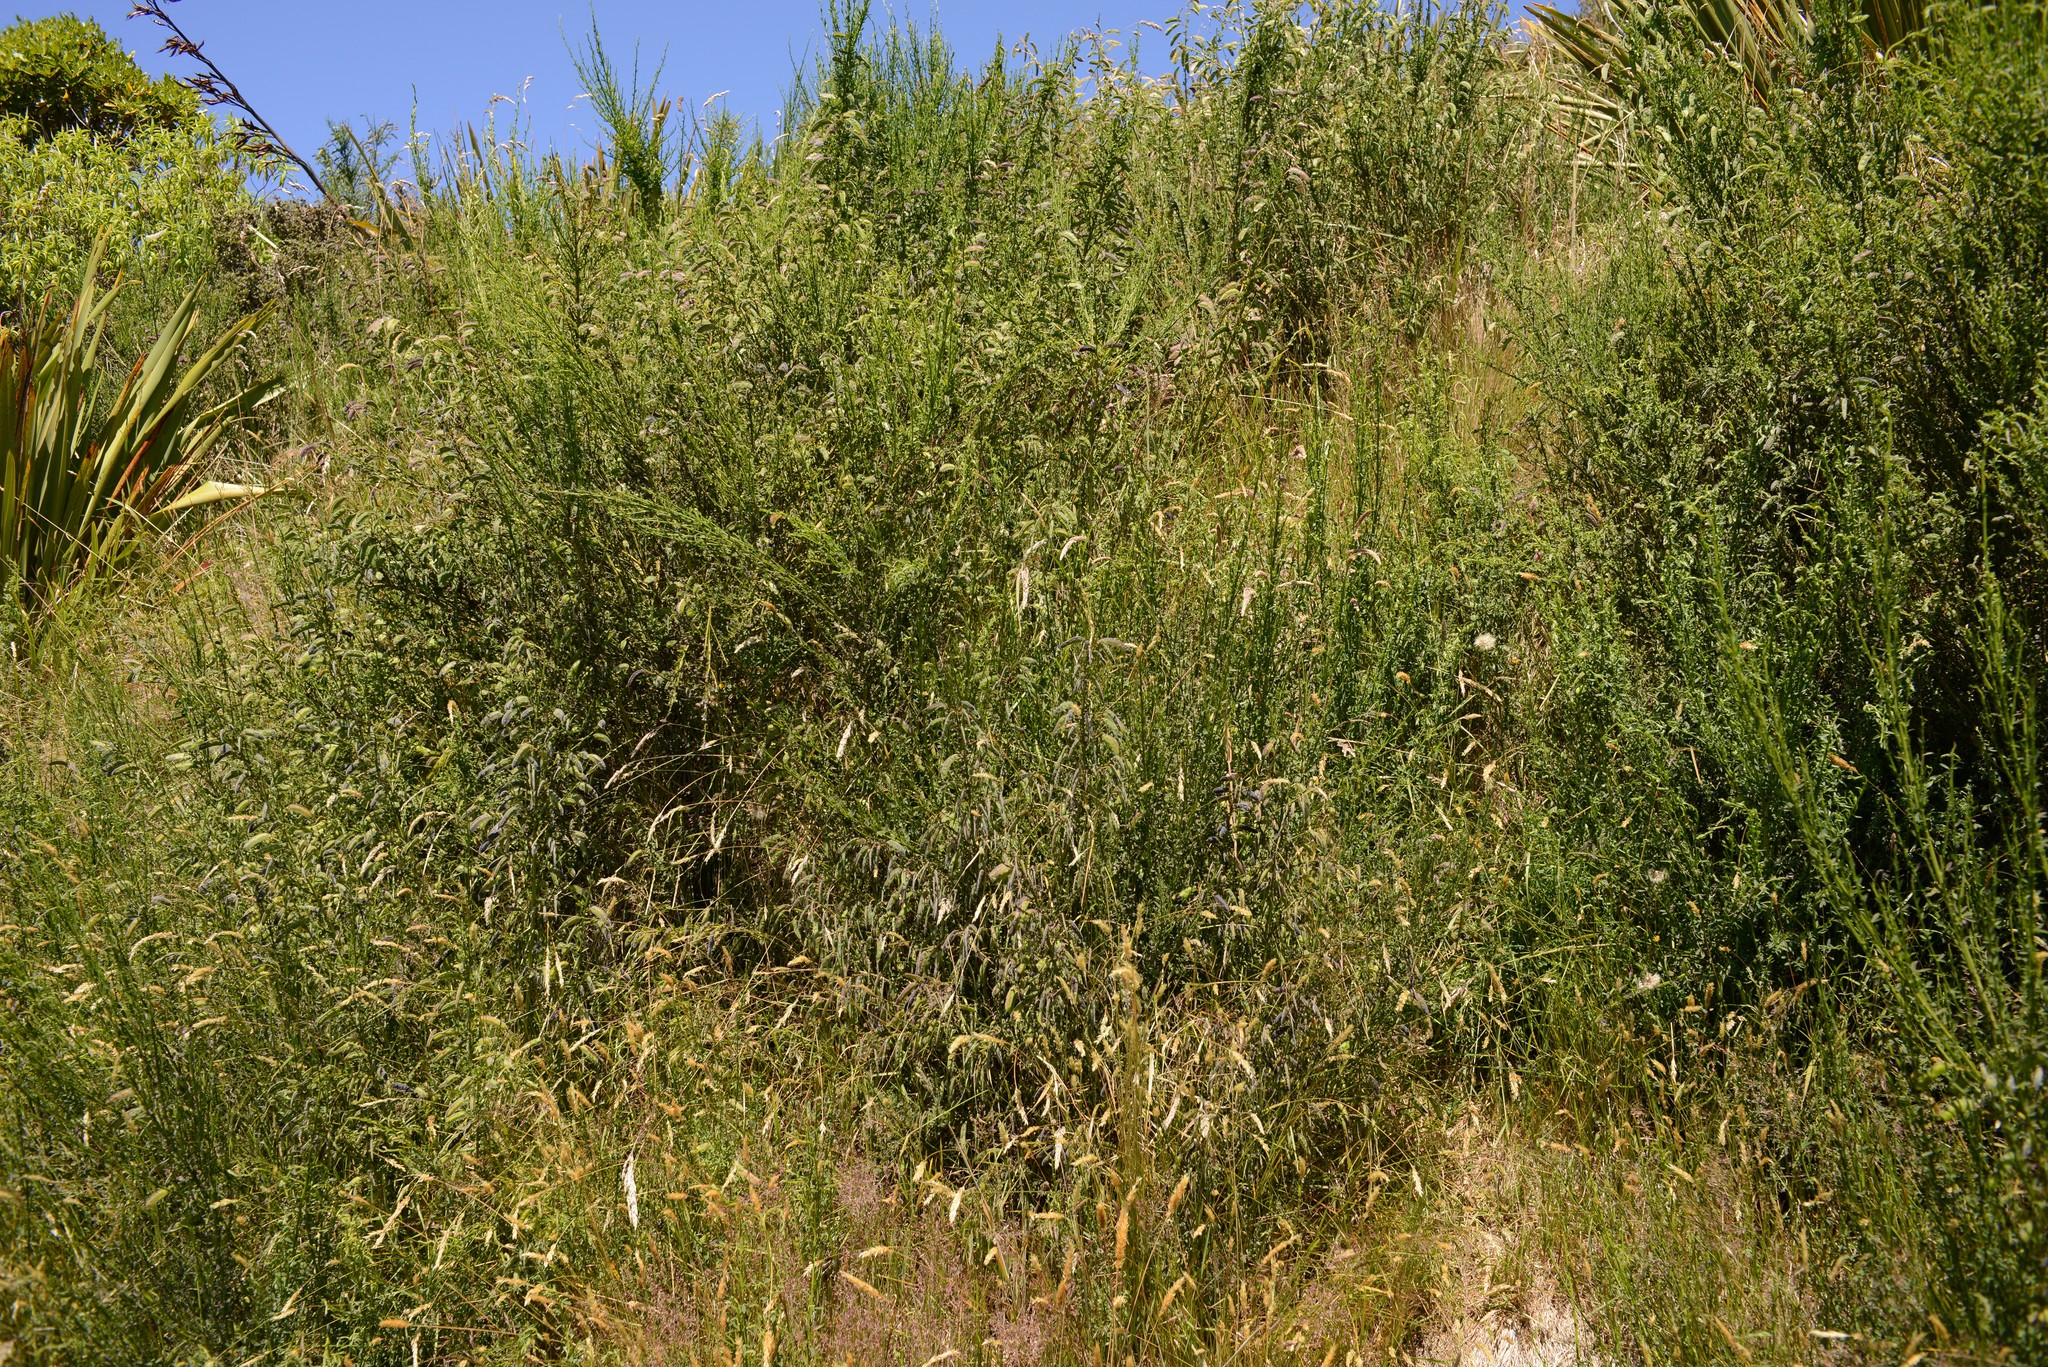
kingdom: Plantae
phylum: Tracheophyta
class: Magnoliopsida
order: Fabales
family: Fabaceae
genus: Cytisus
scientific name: Cytisus scoparius
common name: Scotch broom
